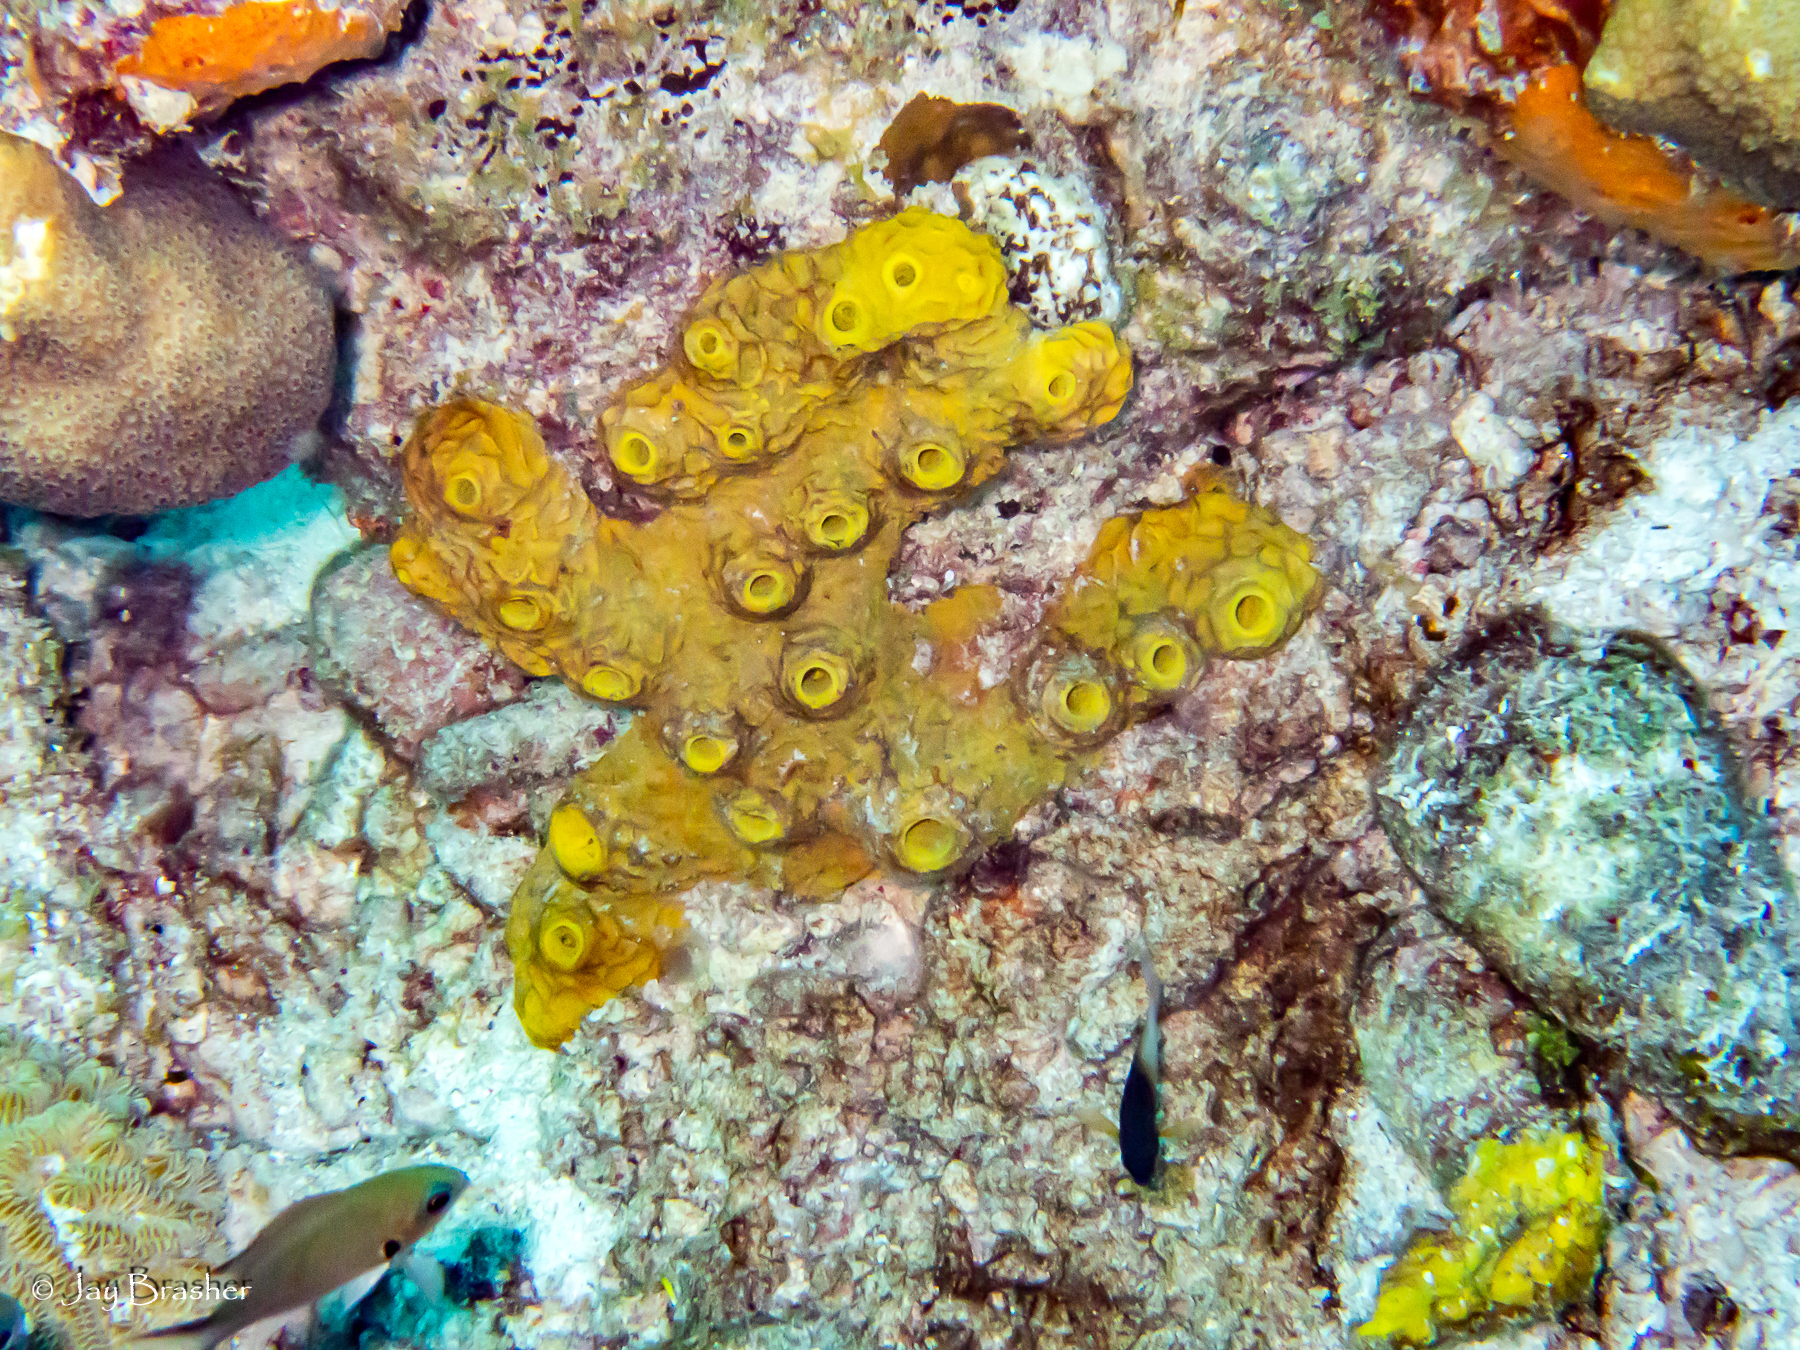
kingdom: Animalia
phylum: Porifera
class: Demospongiae
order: Verongiida
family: Aplysinidae
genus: Verongula
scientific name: Verongula rigida
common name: Pitted sponge
